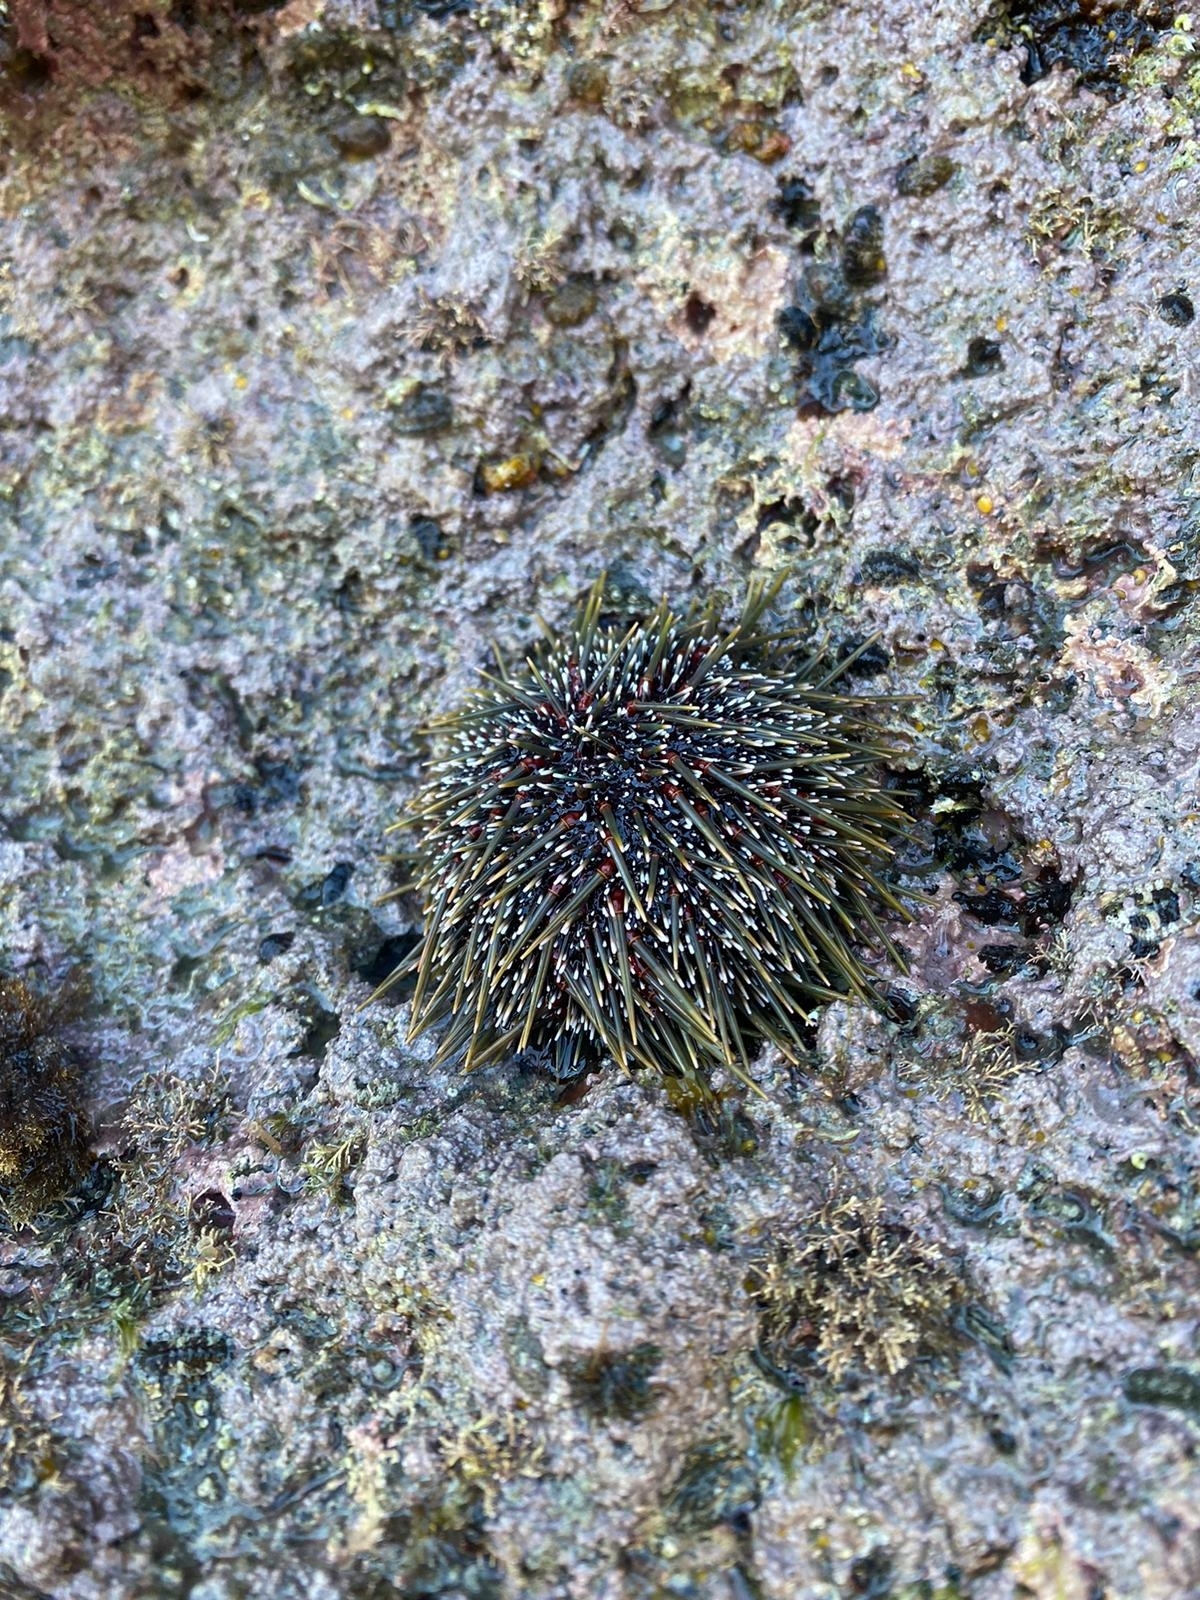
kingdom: Animalia
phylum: Echinodermata
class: Echinoidea
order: Camarodonta
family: Echinometridae
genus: Evechinus
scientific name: Evechinus chloroticus
